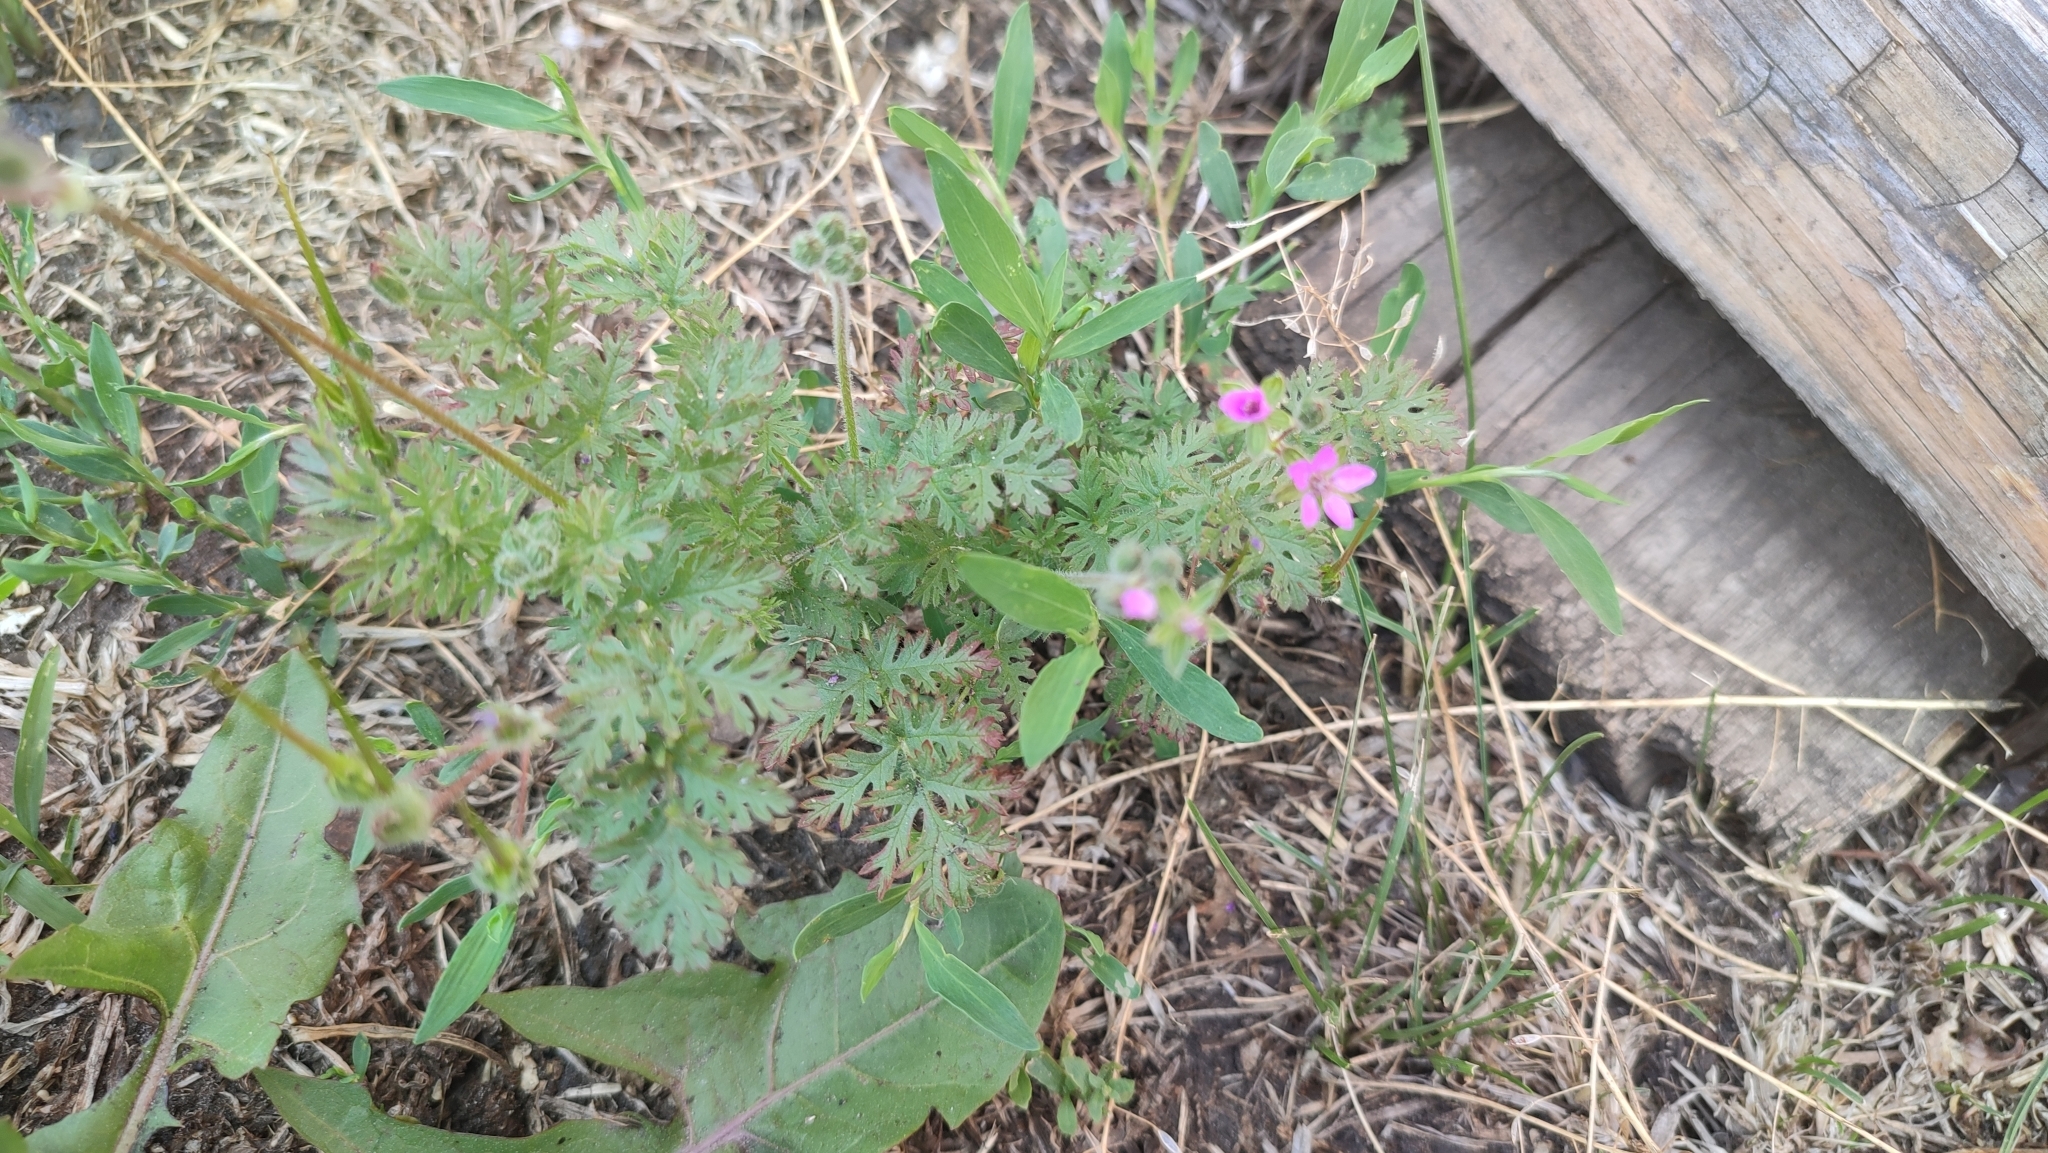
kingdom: Plantae
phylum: Tracheophyta
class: Magnoliopsida
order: Geraniales
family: Geraniaceae
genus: Erodium
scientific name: Erodium cicutarium
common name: Common stork's-bill
